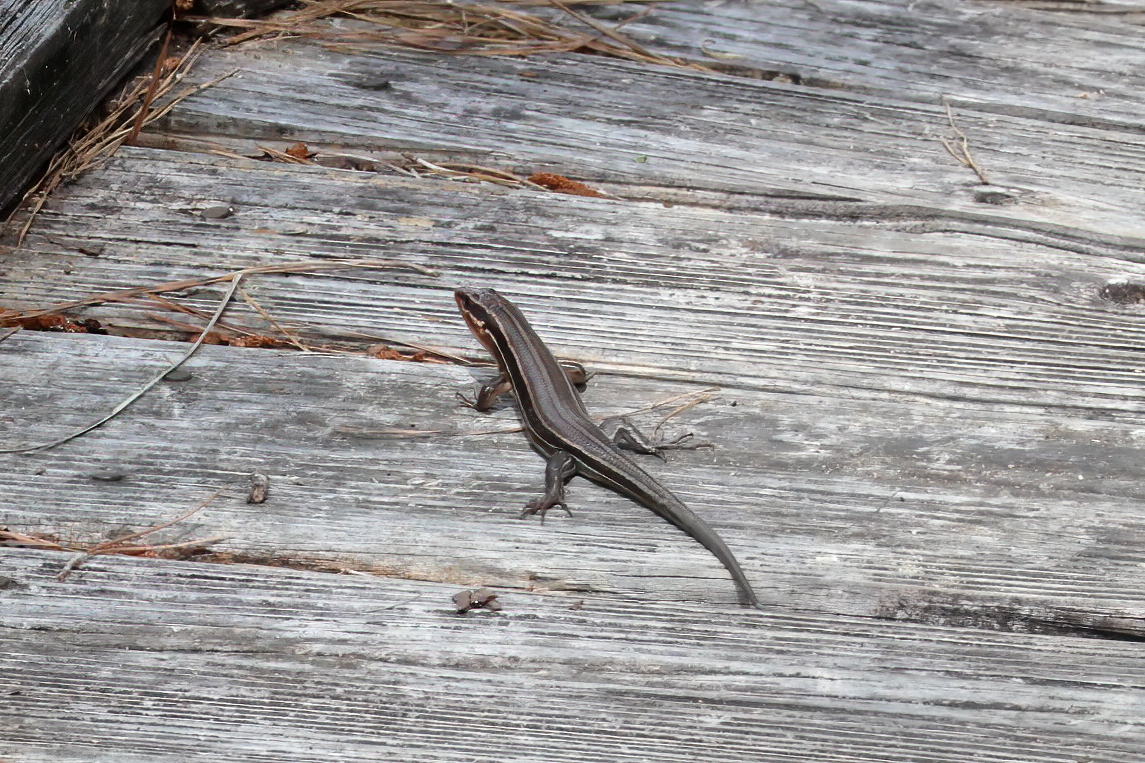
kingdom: Animalia
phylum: Chordata
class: Squamata
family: Scincidae
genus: Plestiodon
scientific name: Plestiodon laticeps
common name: Broadhead skink
